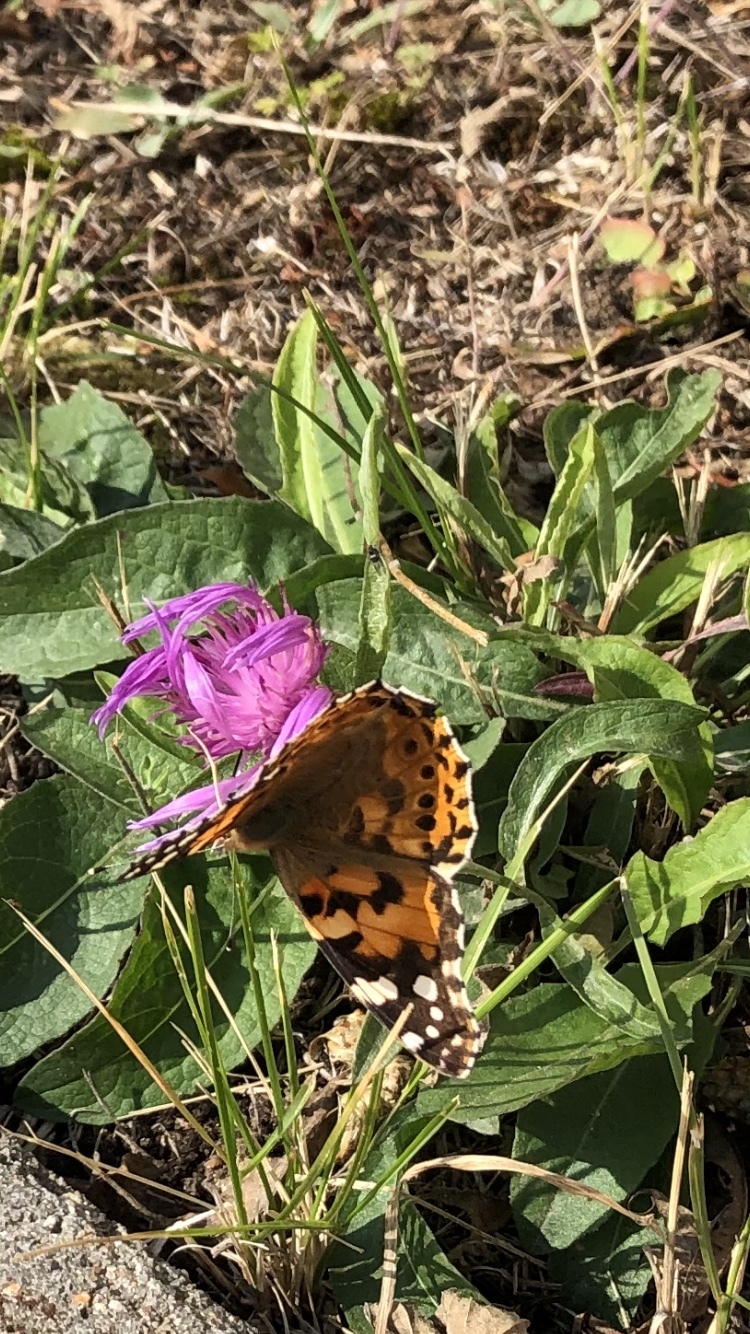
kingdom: Animalia
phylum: Arthropoda
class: Insecta
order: Lepidoptera
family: Nymphalidae
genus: Vanessa
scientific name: Vanessa cardui
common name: Painted lady
